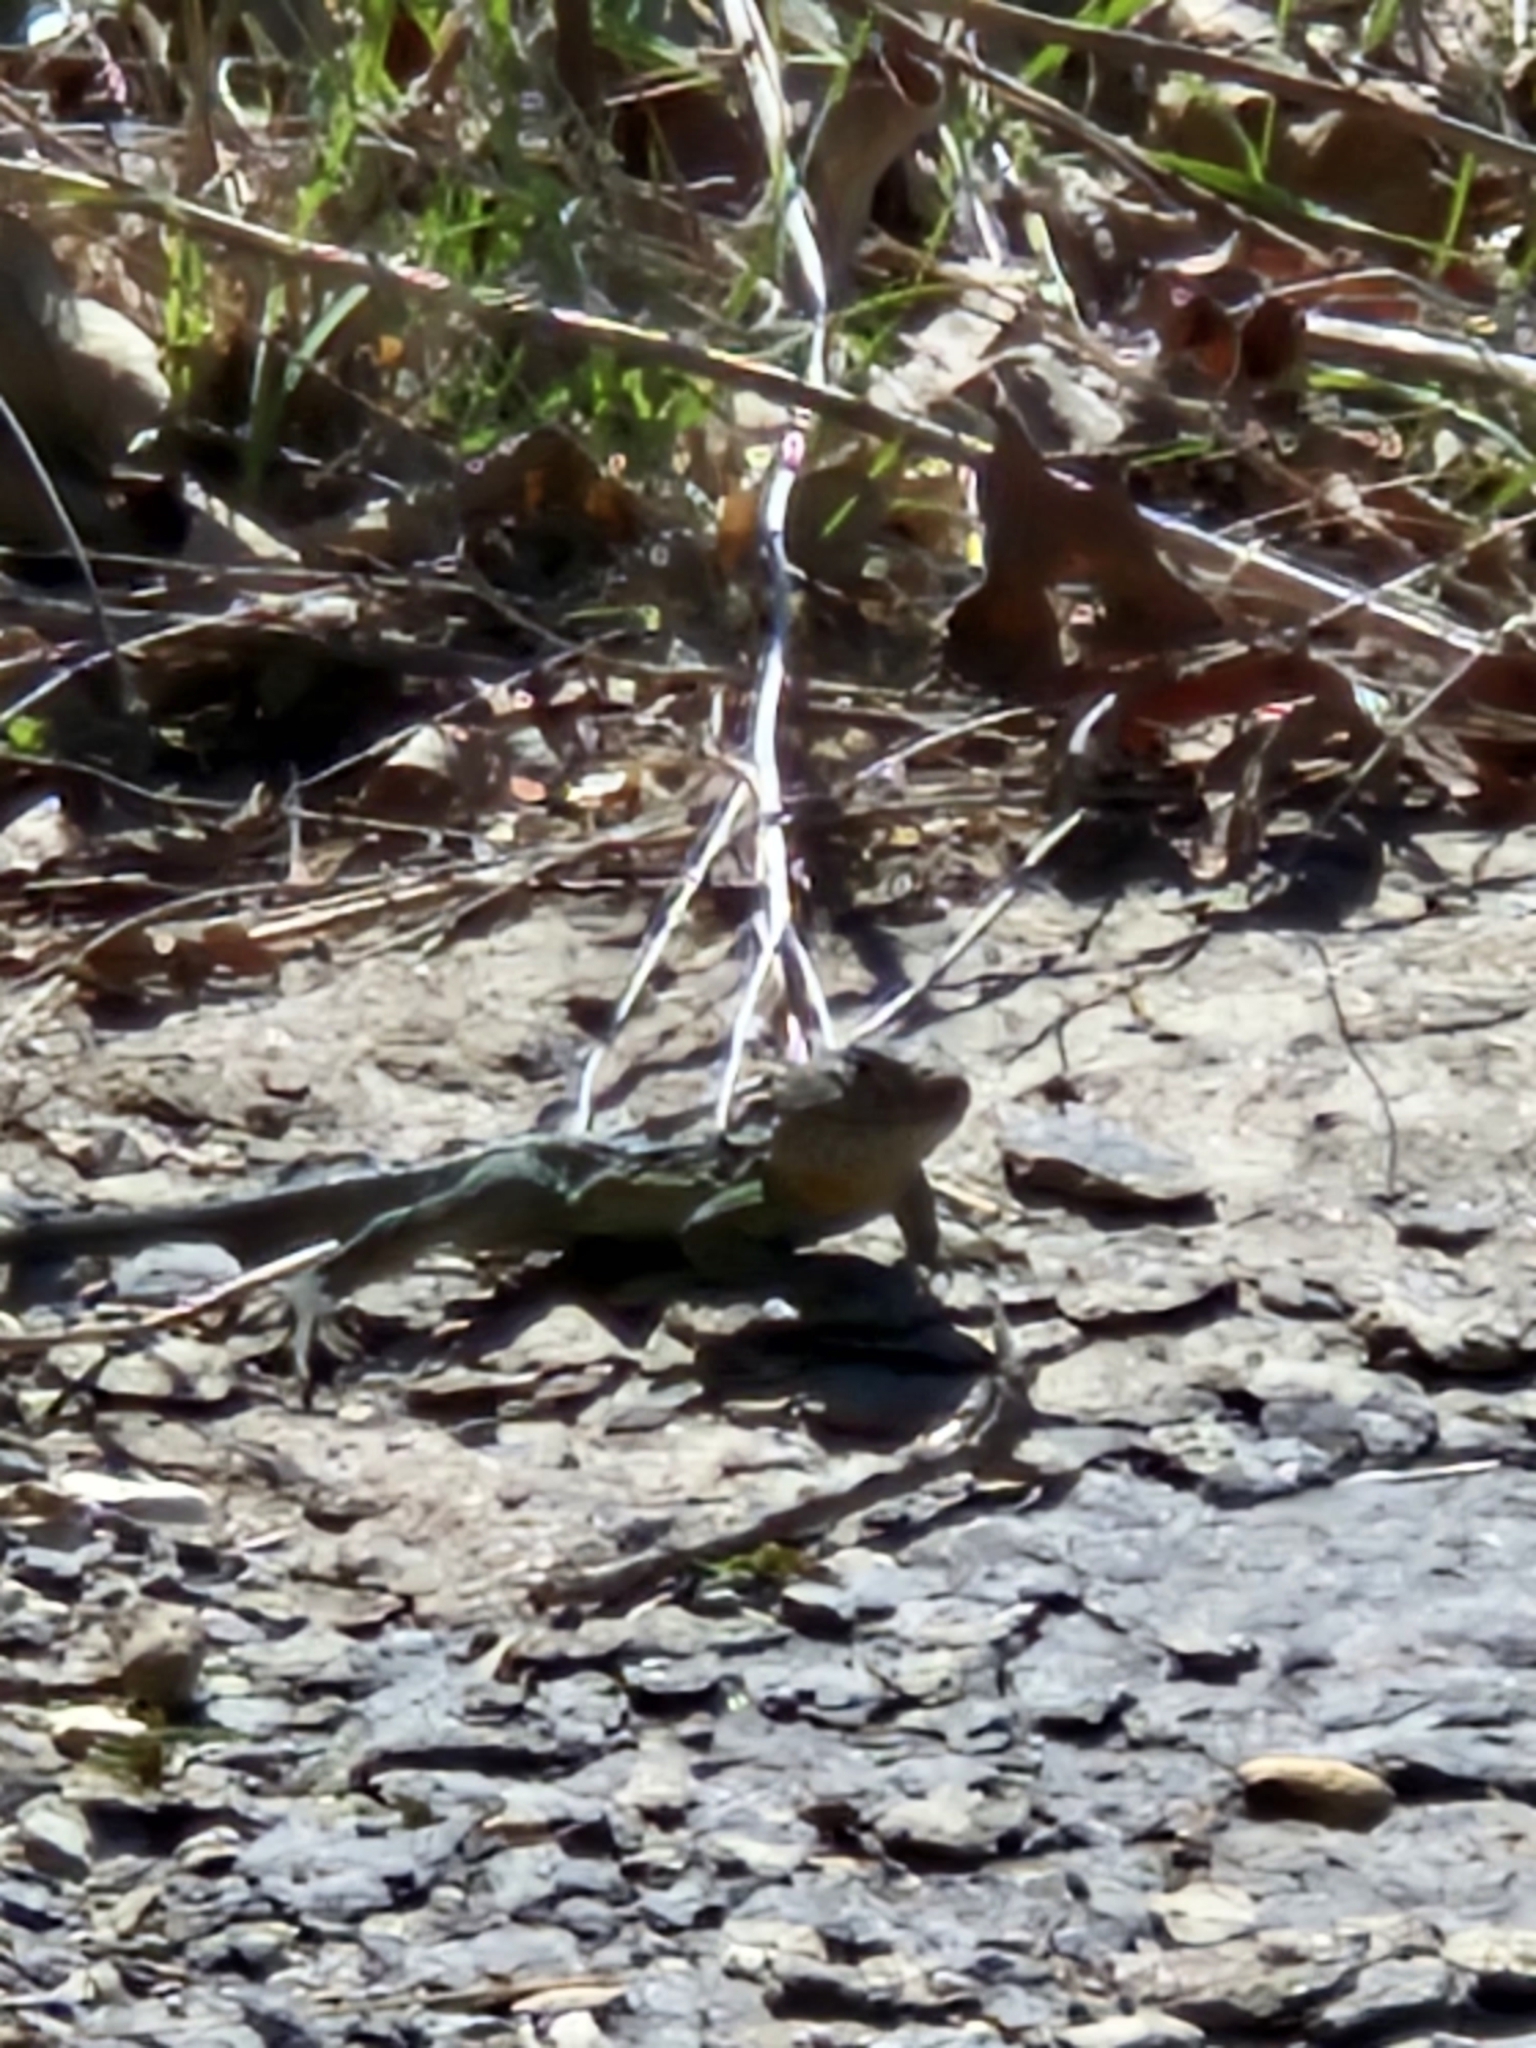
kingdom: Animalia
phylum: Chordata
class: Squamata
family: Crotaphytidae
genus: Crotaphytus
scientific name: Crotaphytus collaris
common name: Collared lizard
